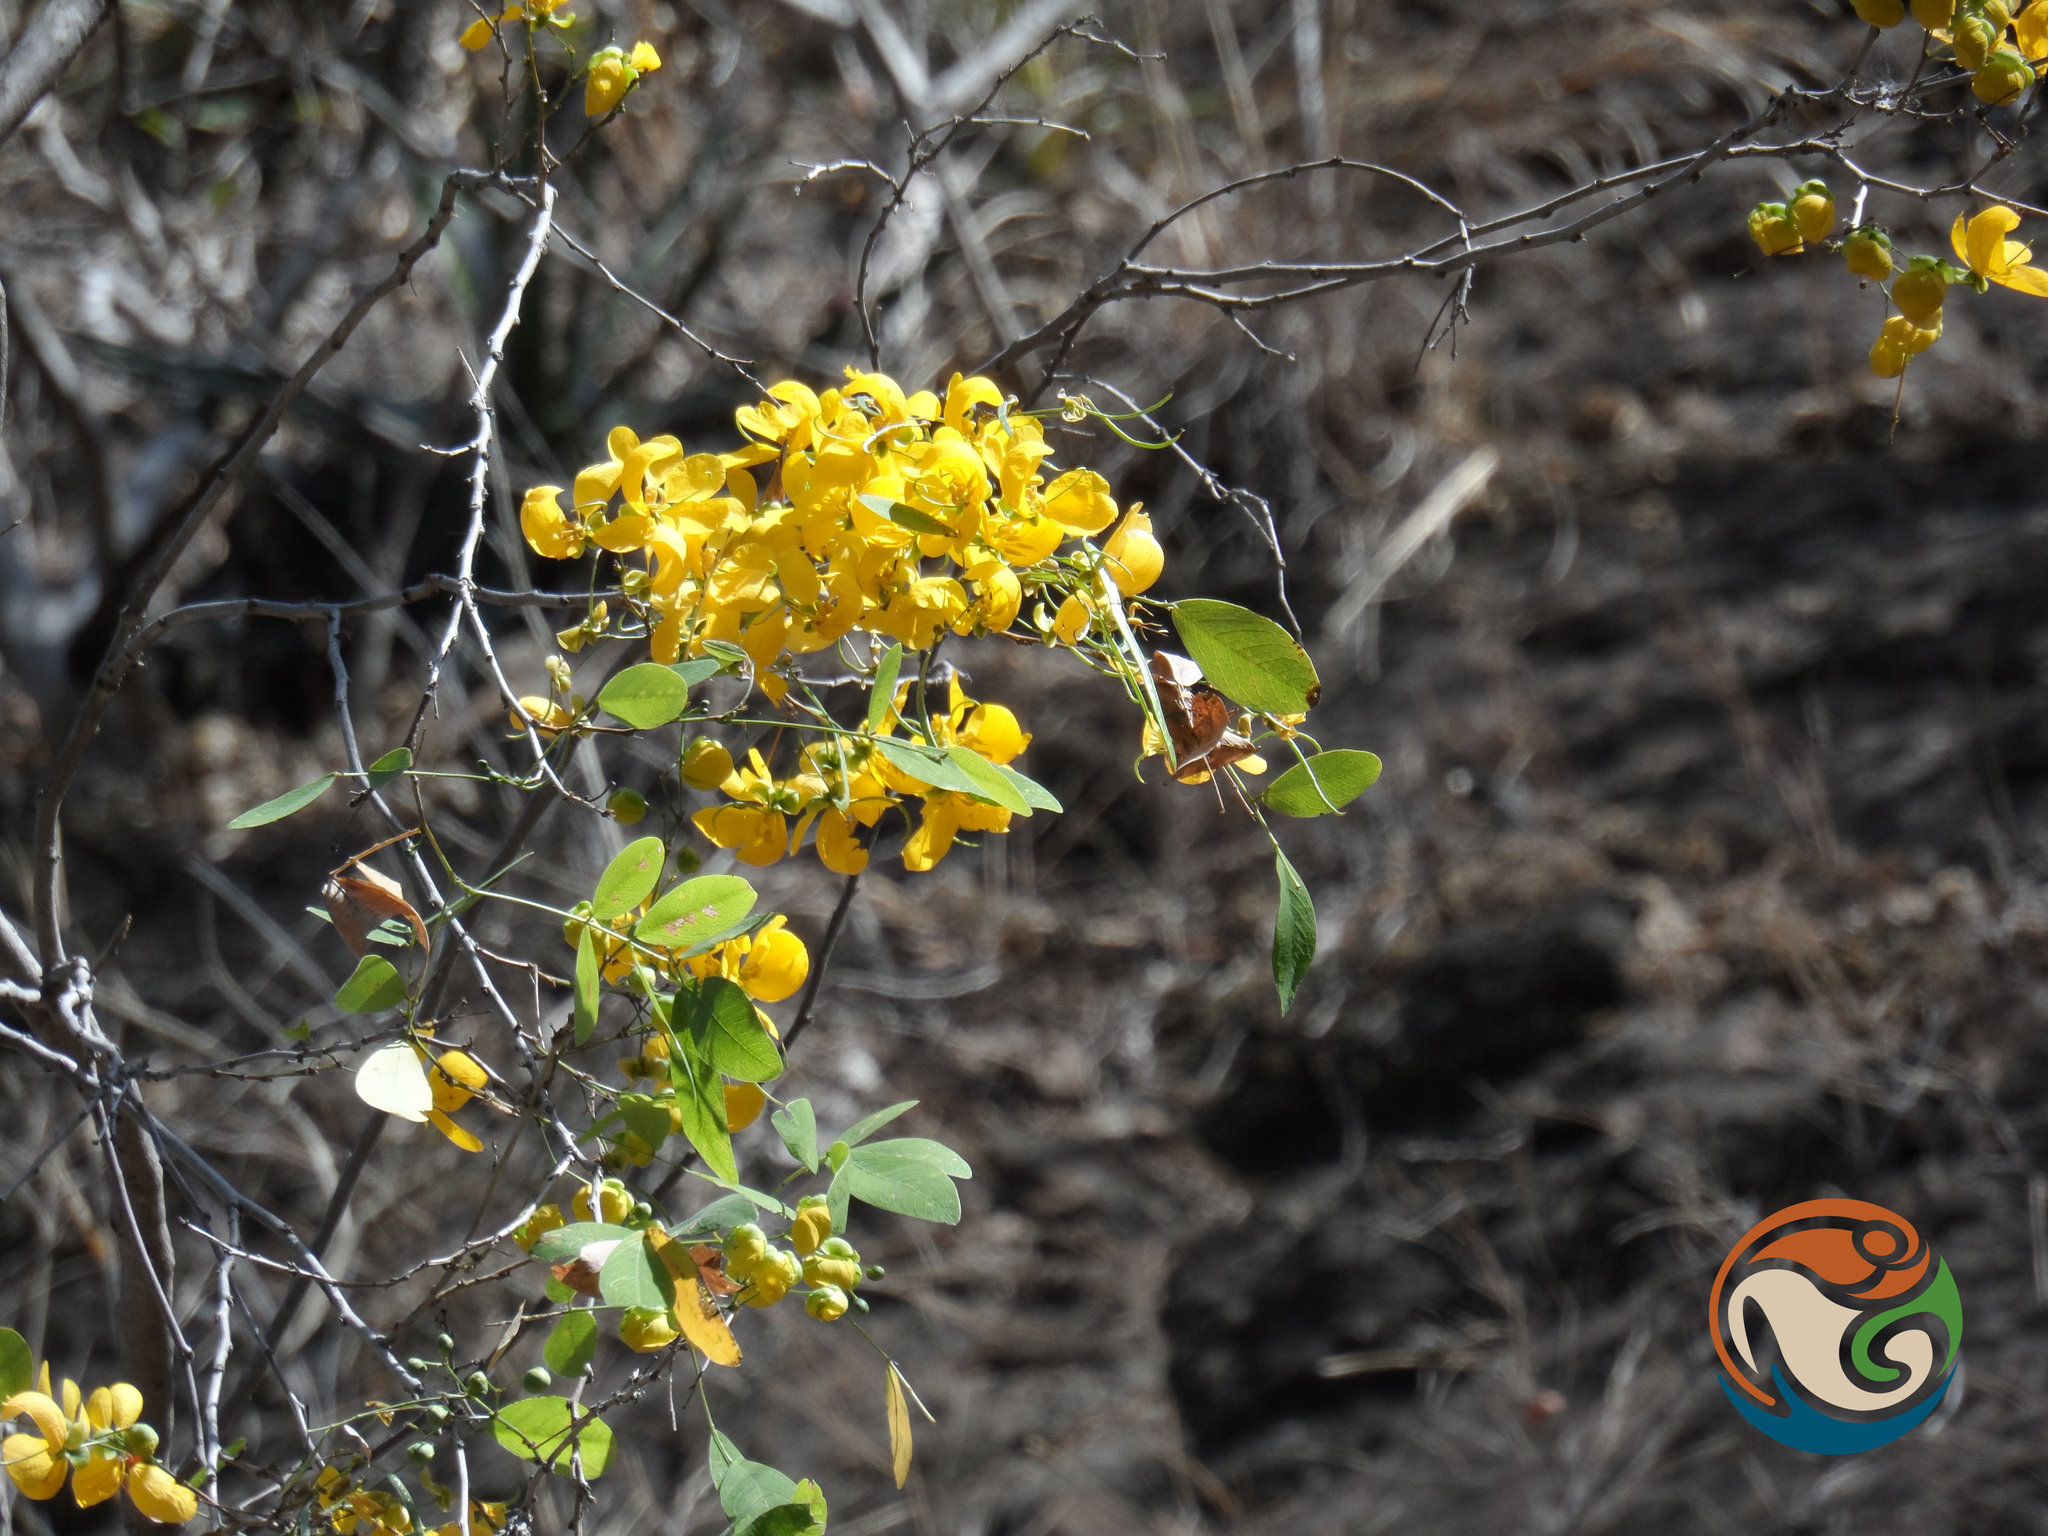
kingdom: Plantae
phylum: Tracheophyta
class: Magnoliopsida
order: Fabales
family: Fabaceae
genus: Senna
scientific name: Senna holwayana
